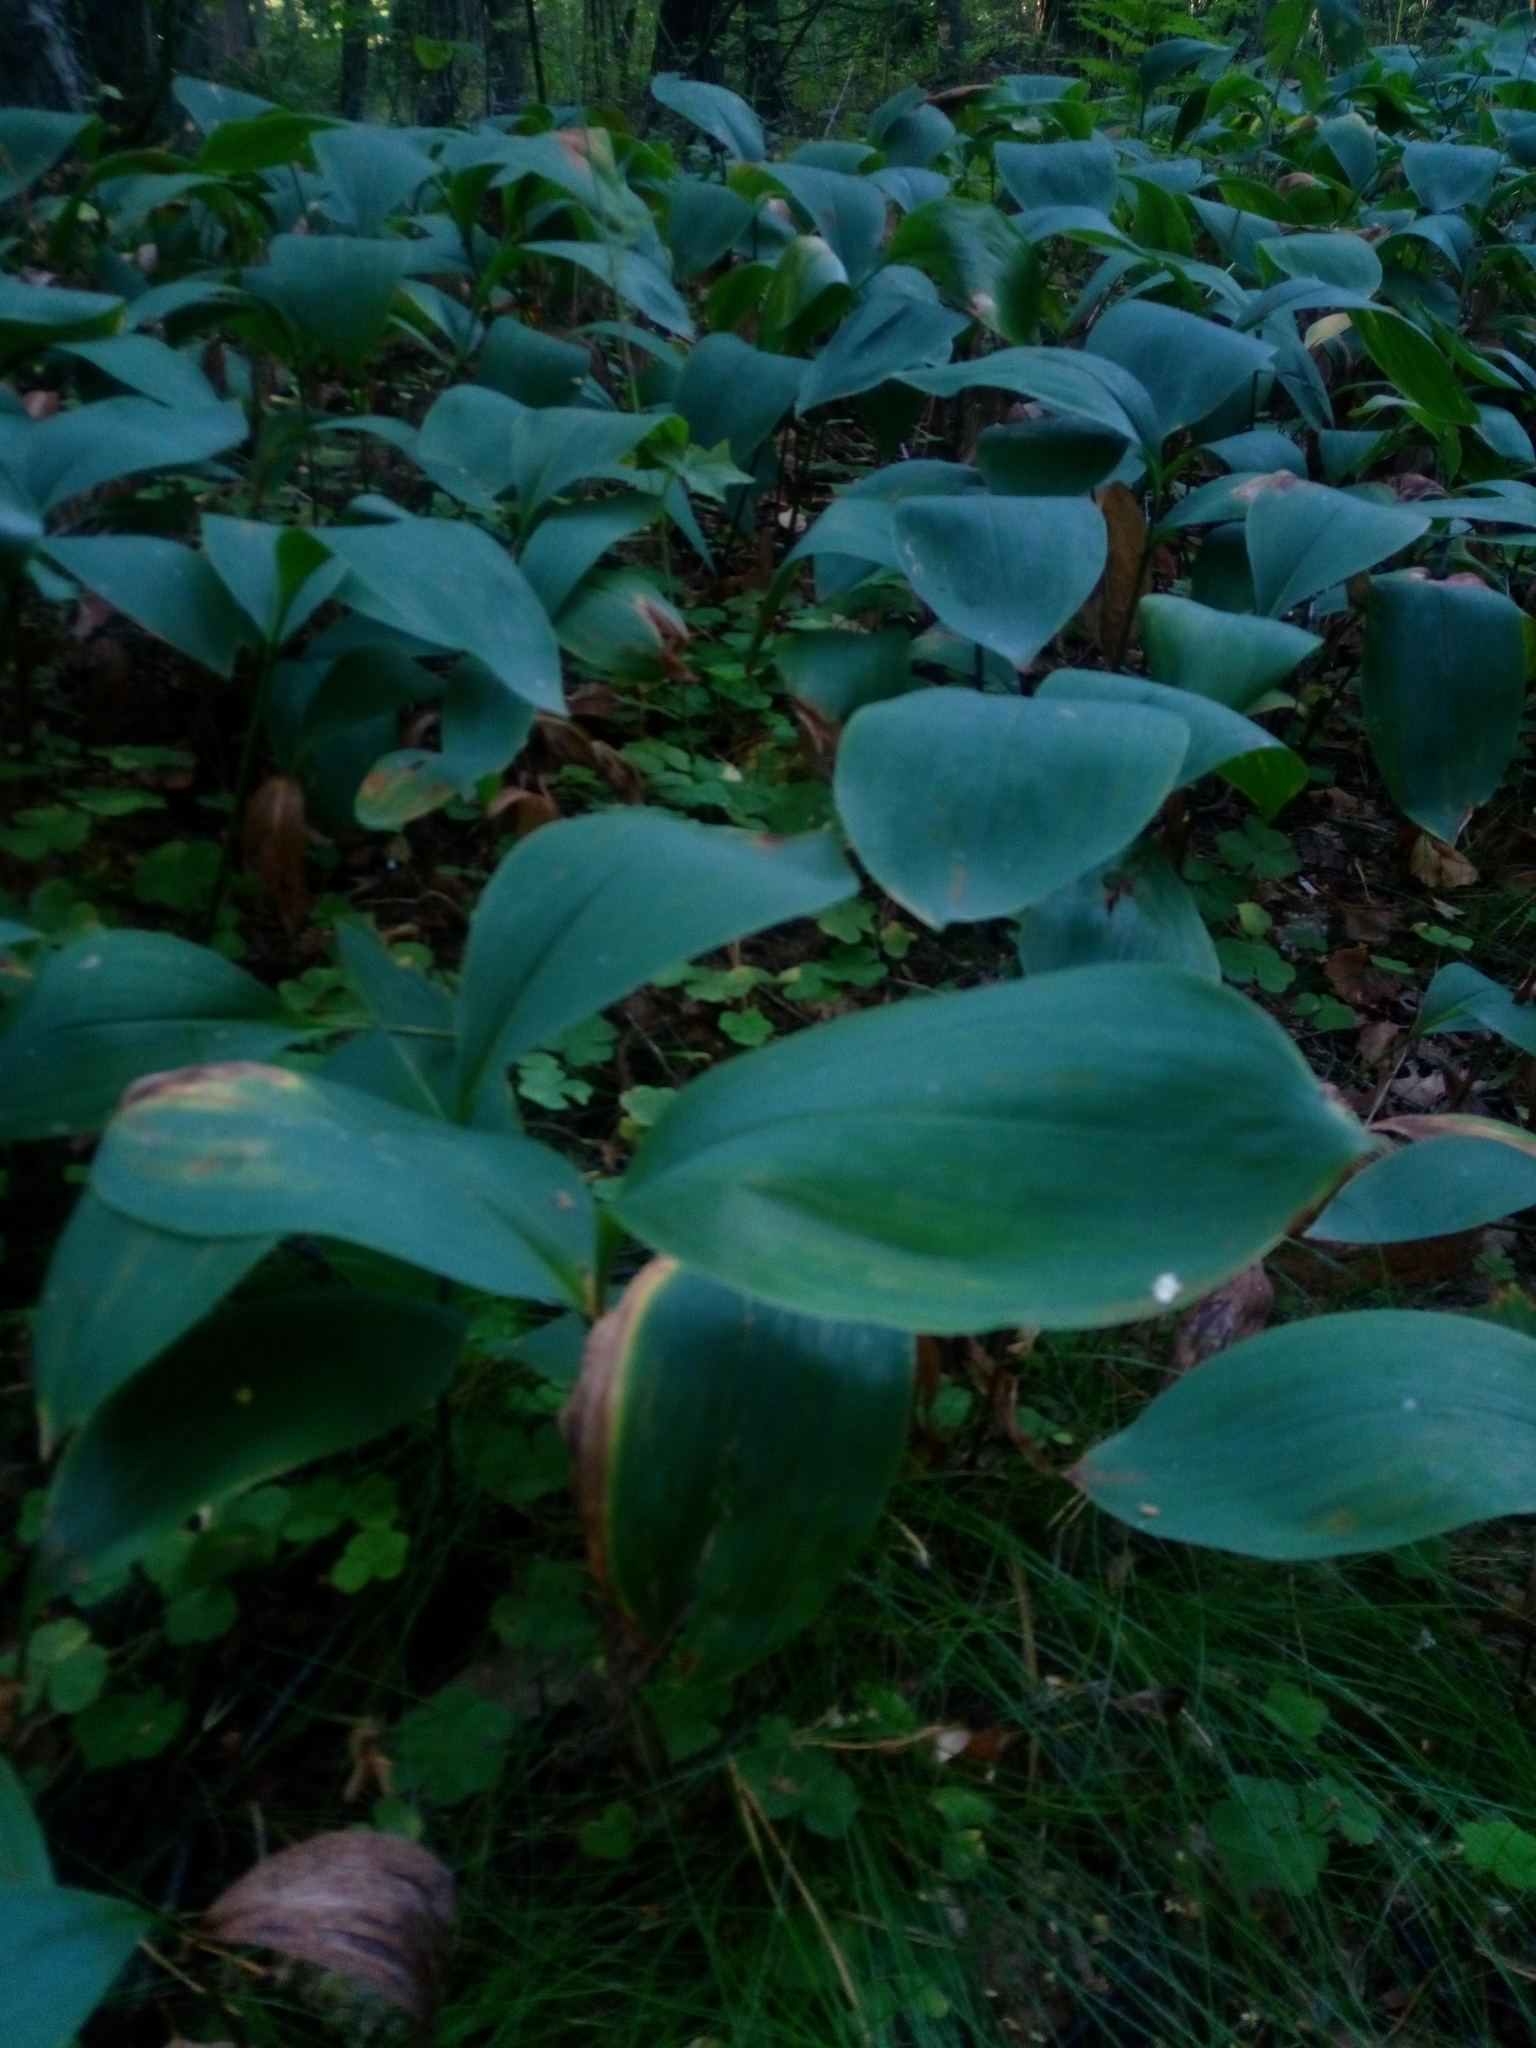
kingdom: Plantae
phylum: Tracheophyta
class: Liliopsida
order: Asparagales
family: Asparagaceae
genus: Convallaria
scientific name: Convallaria majalis
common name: Lily-of-the-valley
